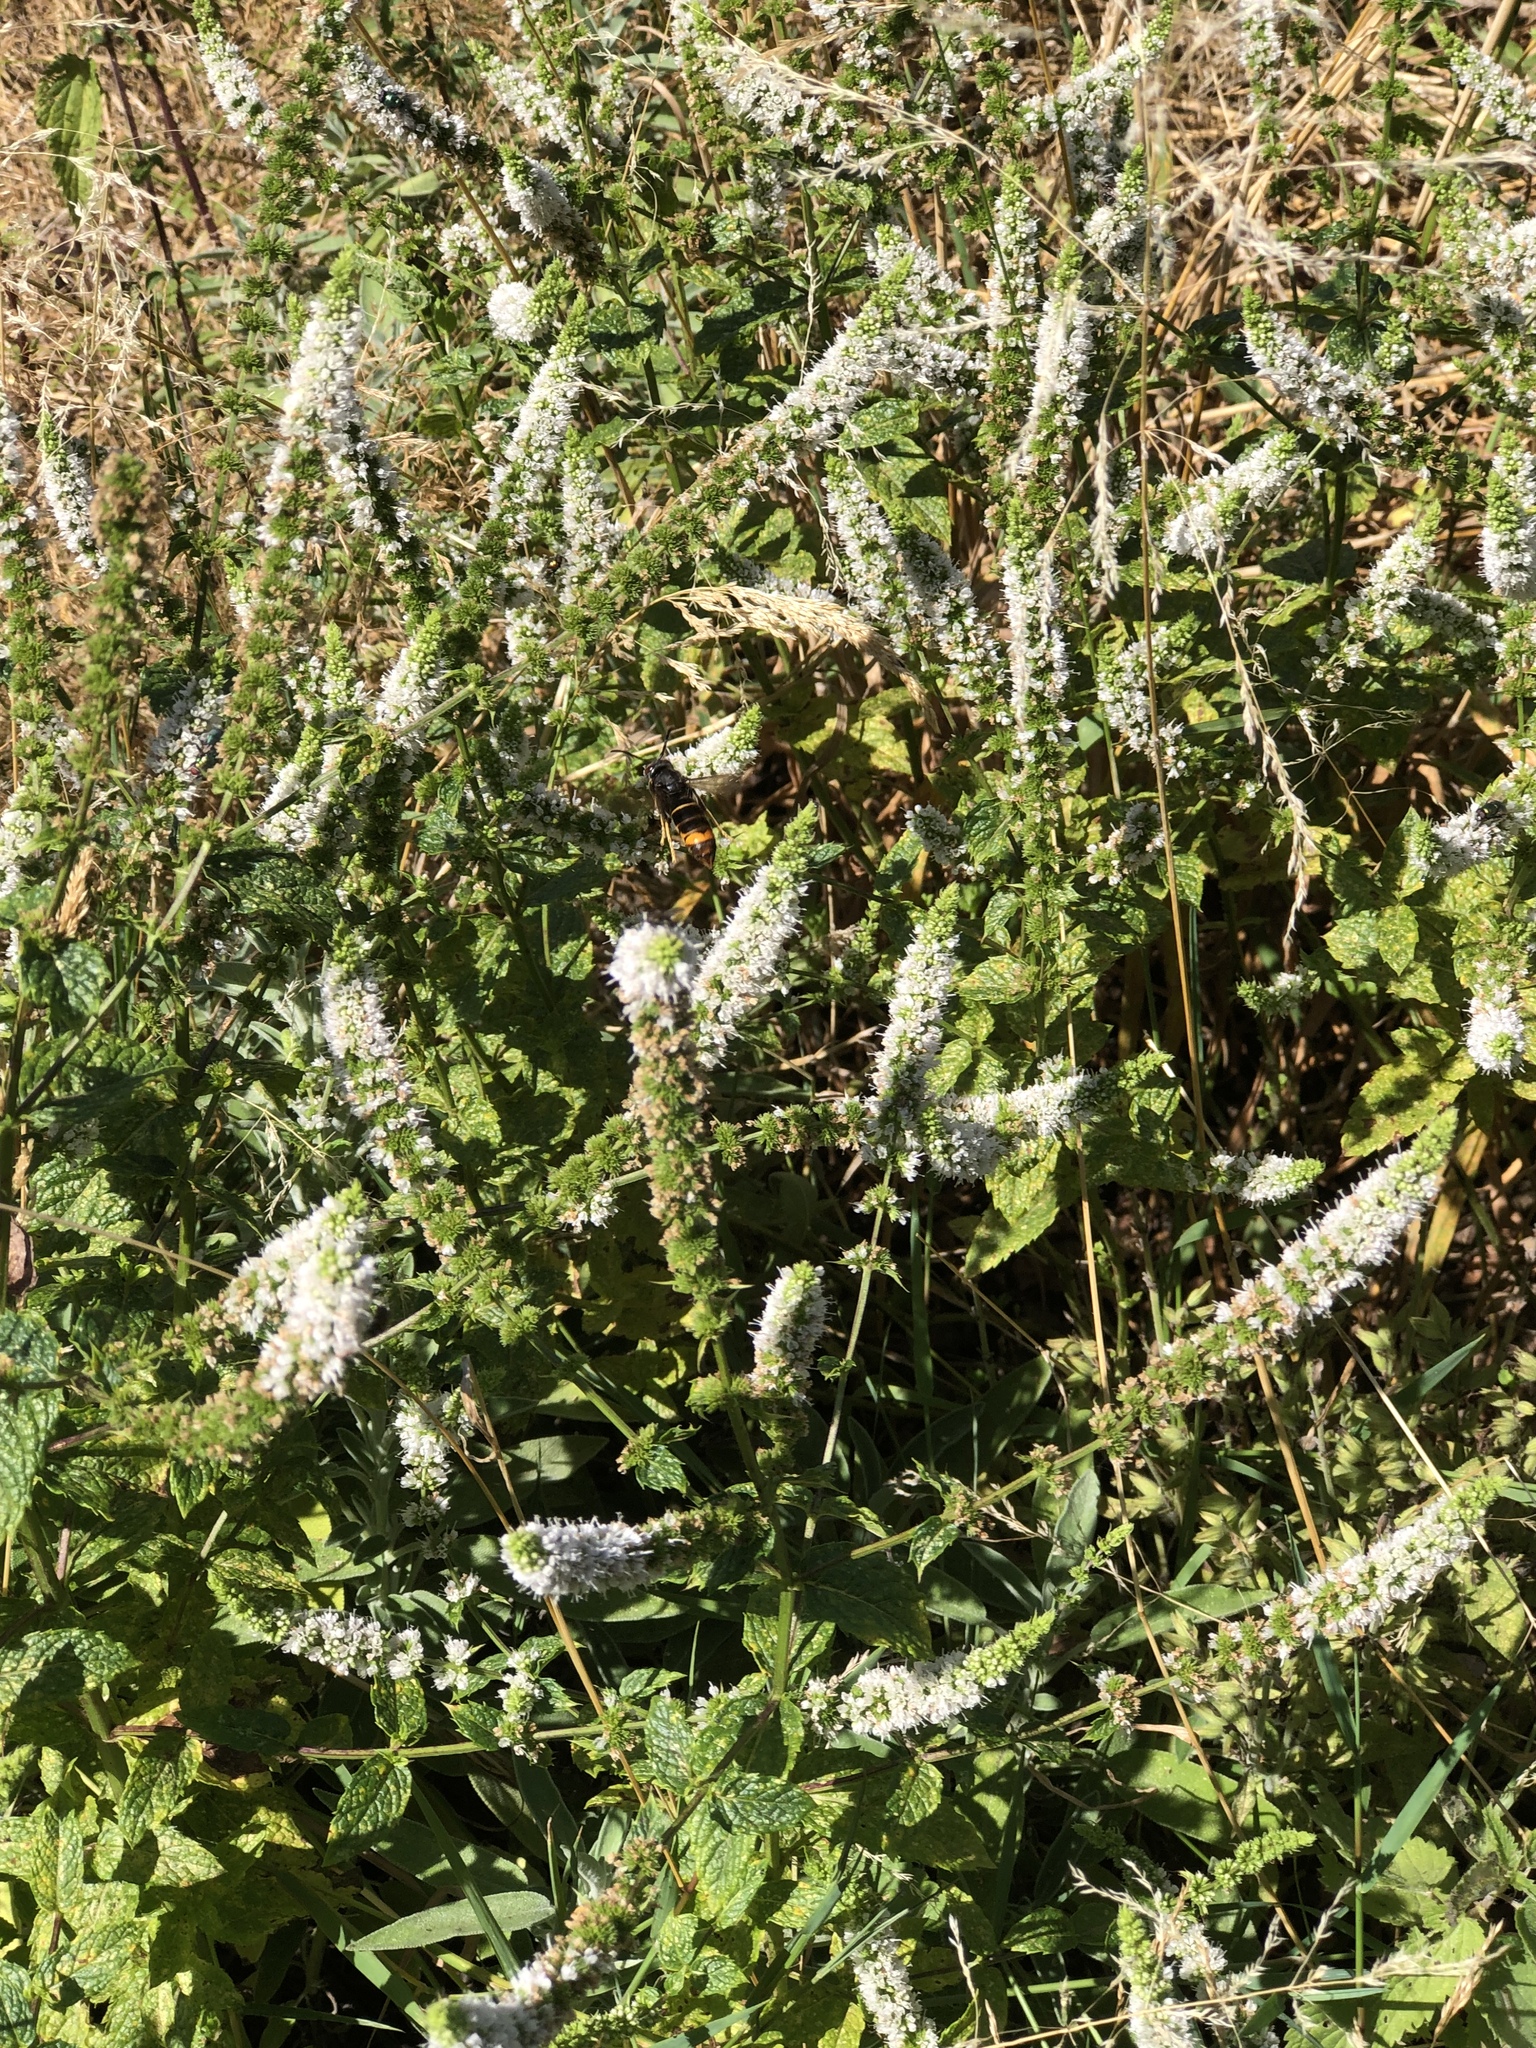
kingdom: Animalia
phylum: Arthropoda
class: Insecta
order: Hymenoptera
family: Vespidae
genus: Vespa
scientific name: Vespa velutina
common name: Asian hornet
